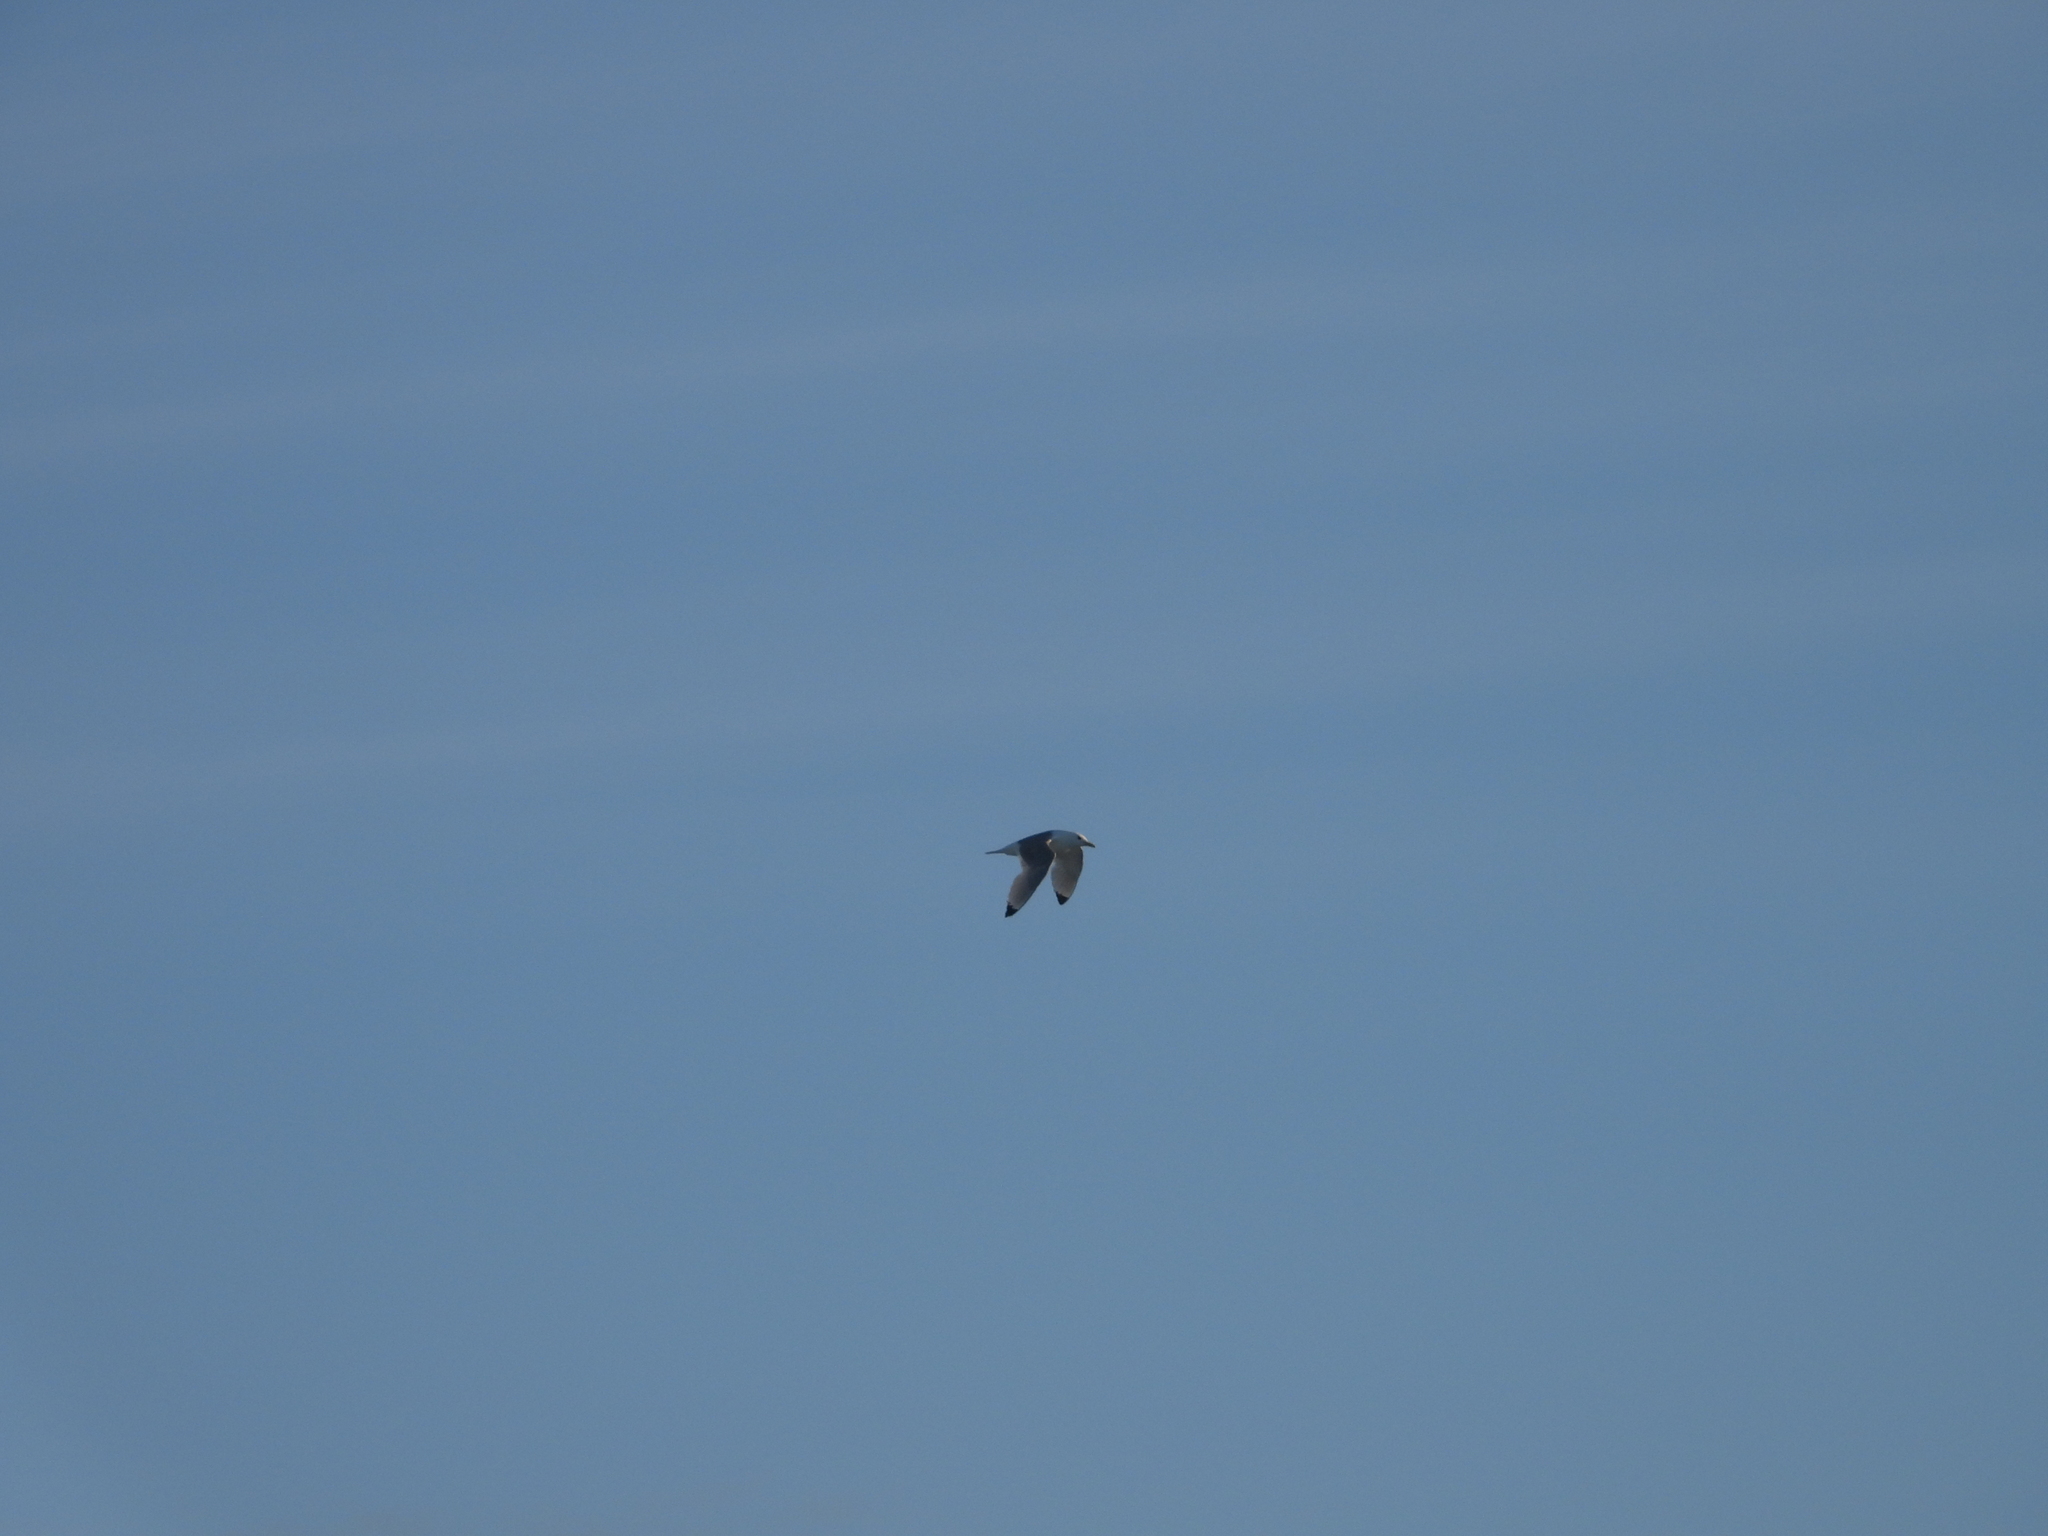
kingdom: Animalia
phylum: Chordata
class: Aves
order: Charadriiformes
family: Laridae
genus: Rissa
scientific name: Rissa tridactyla
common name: Black-legged kittiwake
